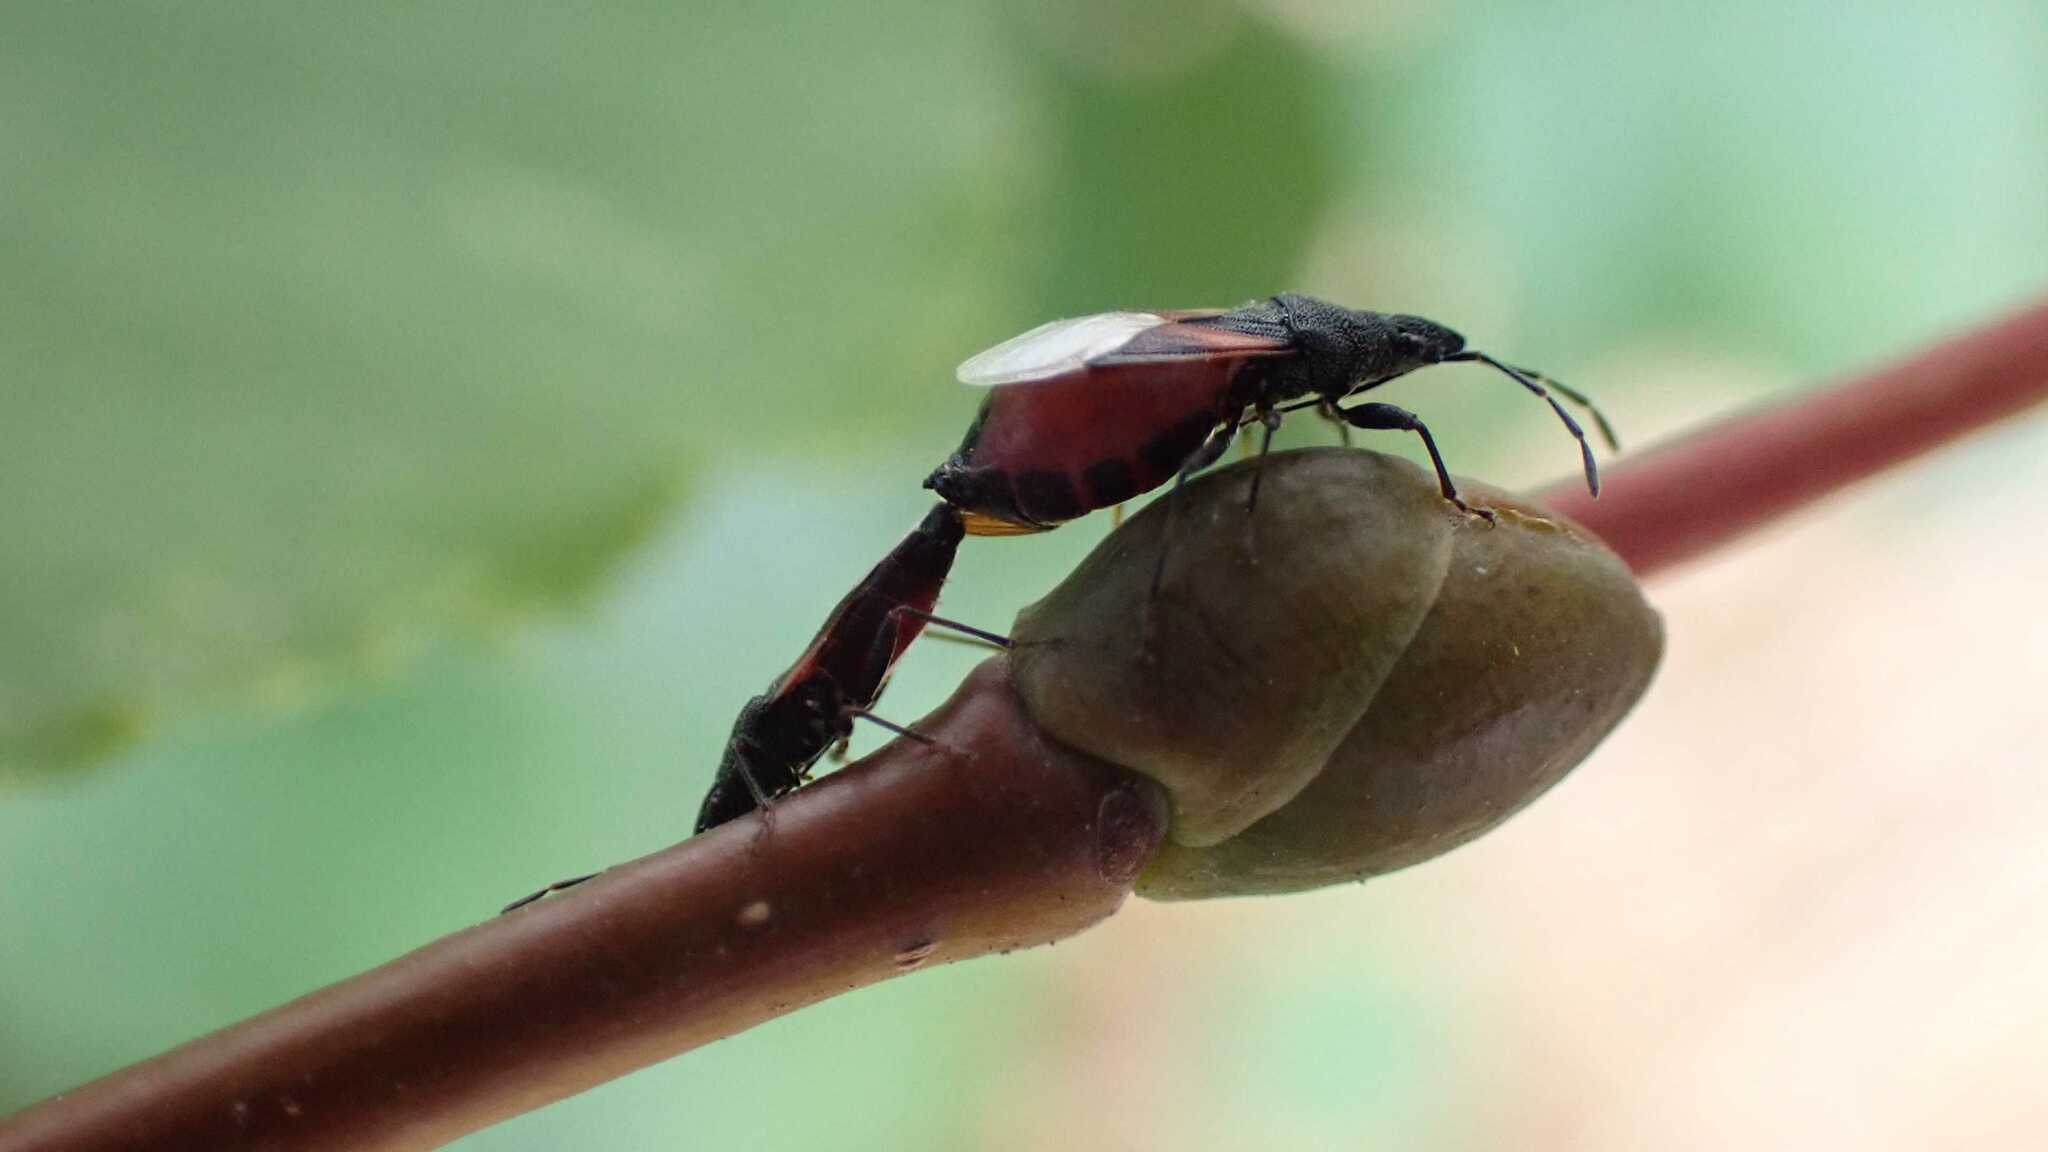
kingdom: Animalia
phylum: Arthropoda
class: Insecta
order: Hemiptera
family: Oxycarenidae
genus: Oxycarenus
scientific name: Oxycarenus lavaterae
